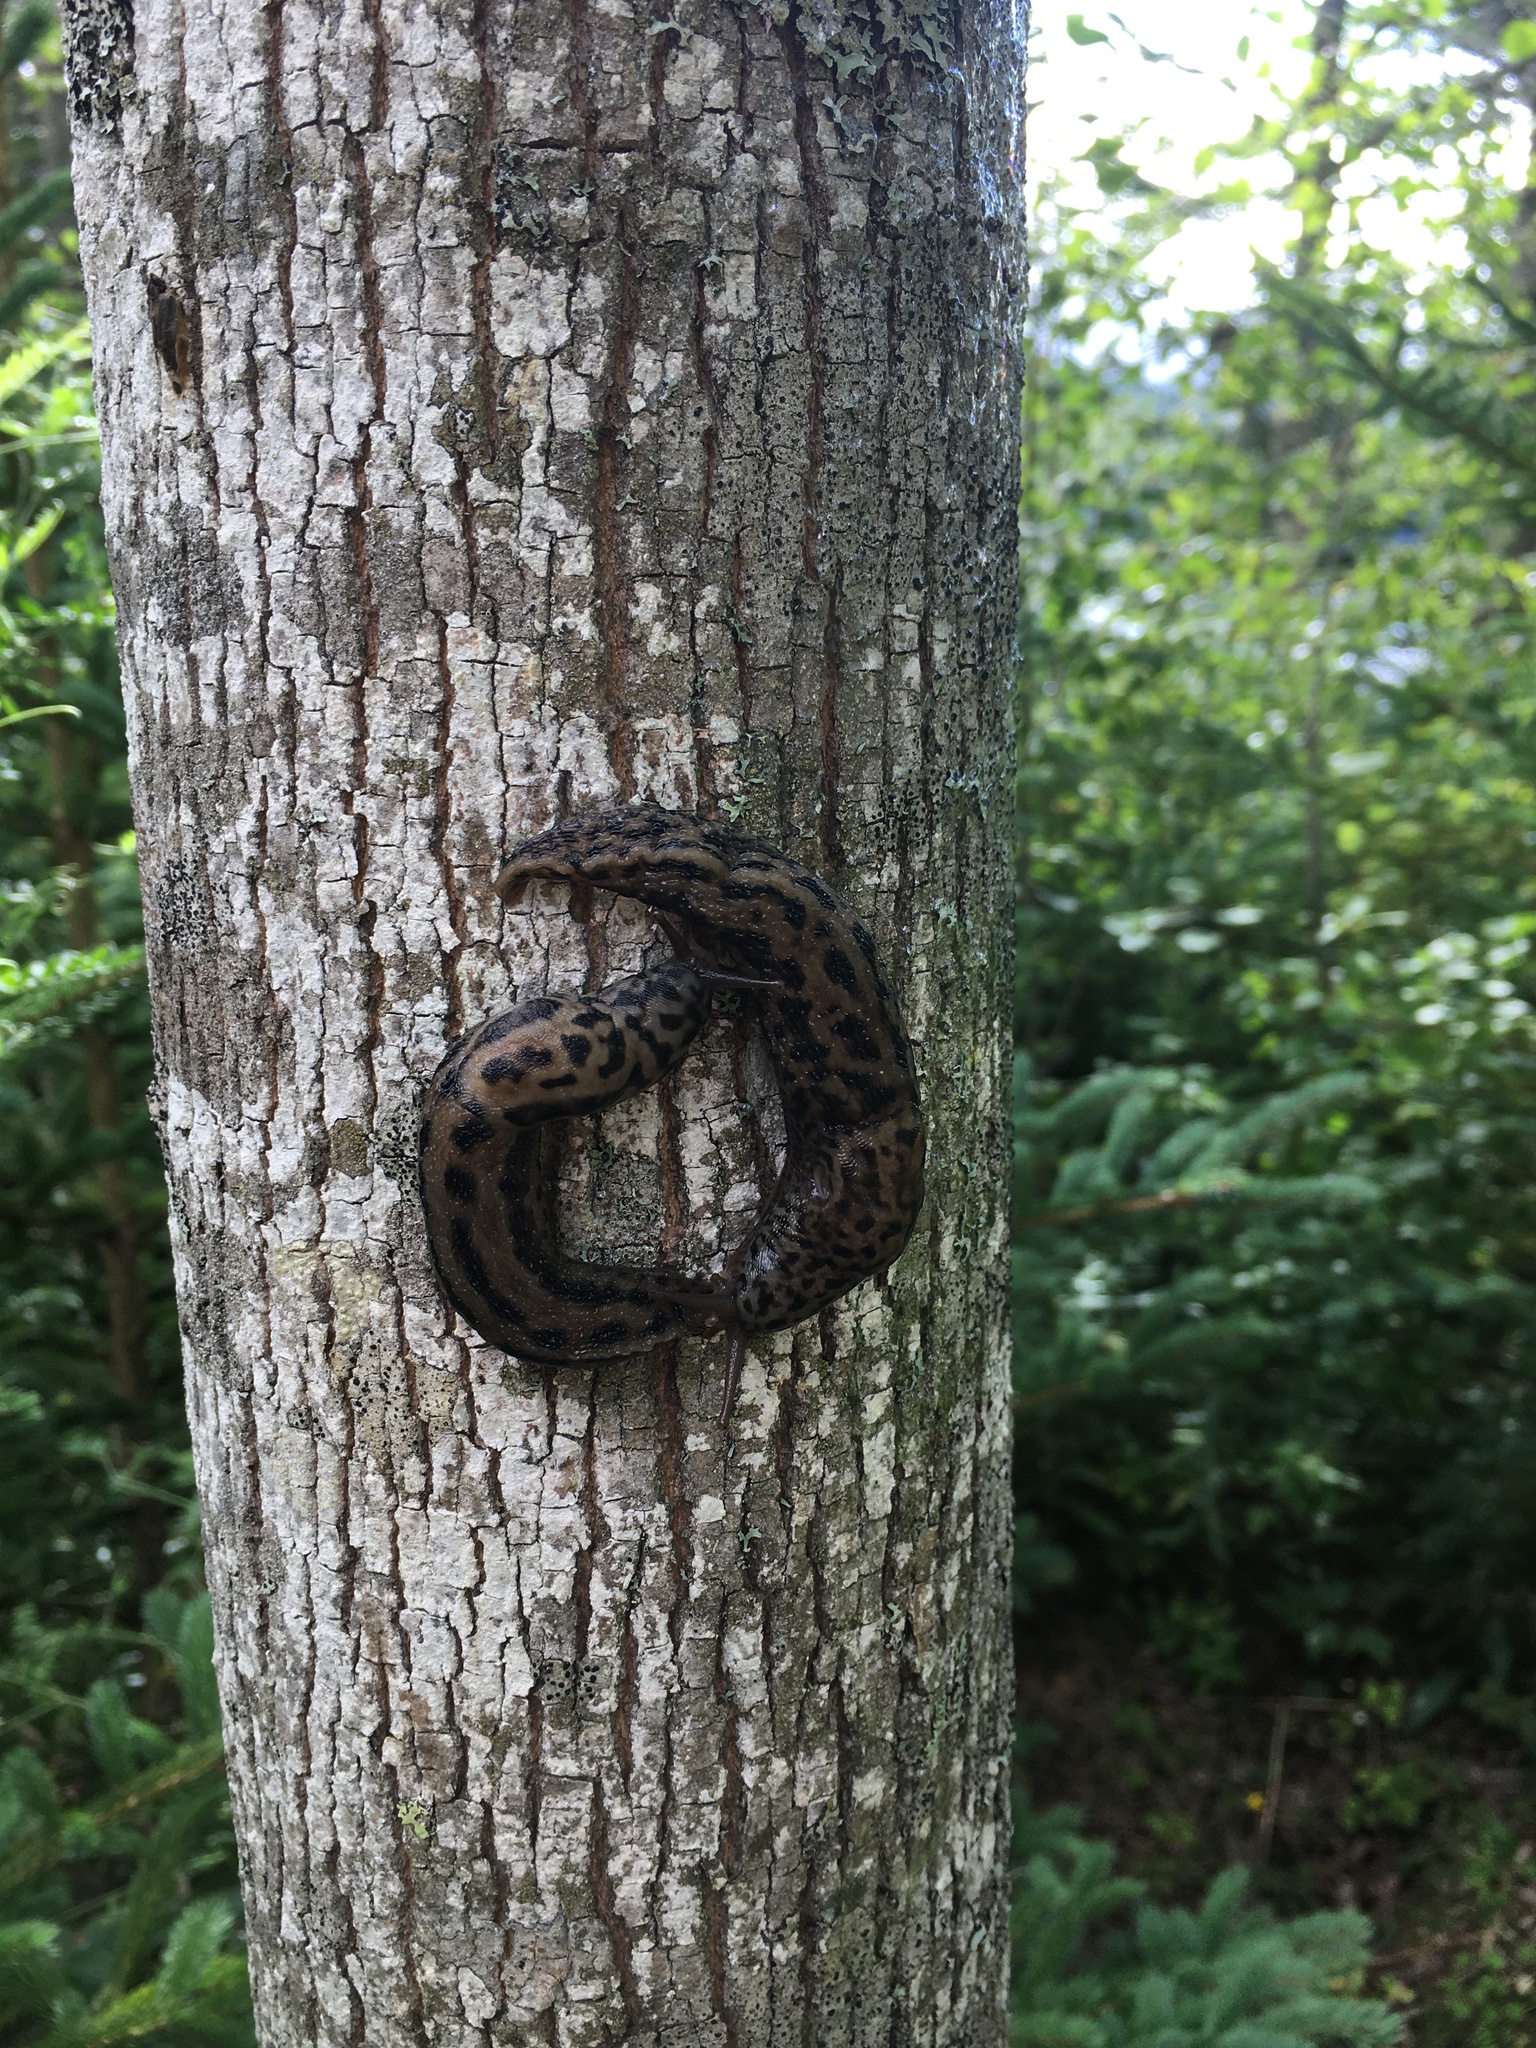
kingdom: Animalia
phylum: Mollusca
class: Gastropoda
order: Stylommatophora
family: Limacidae
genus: Limax
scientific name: Limax maximus
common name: Great grey slug
